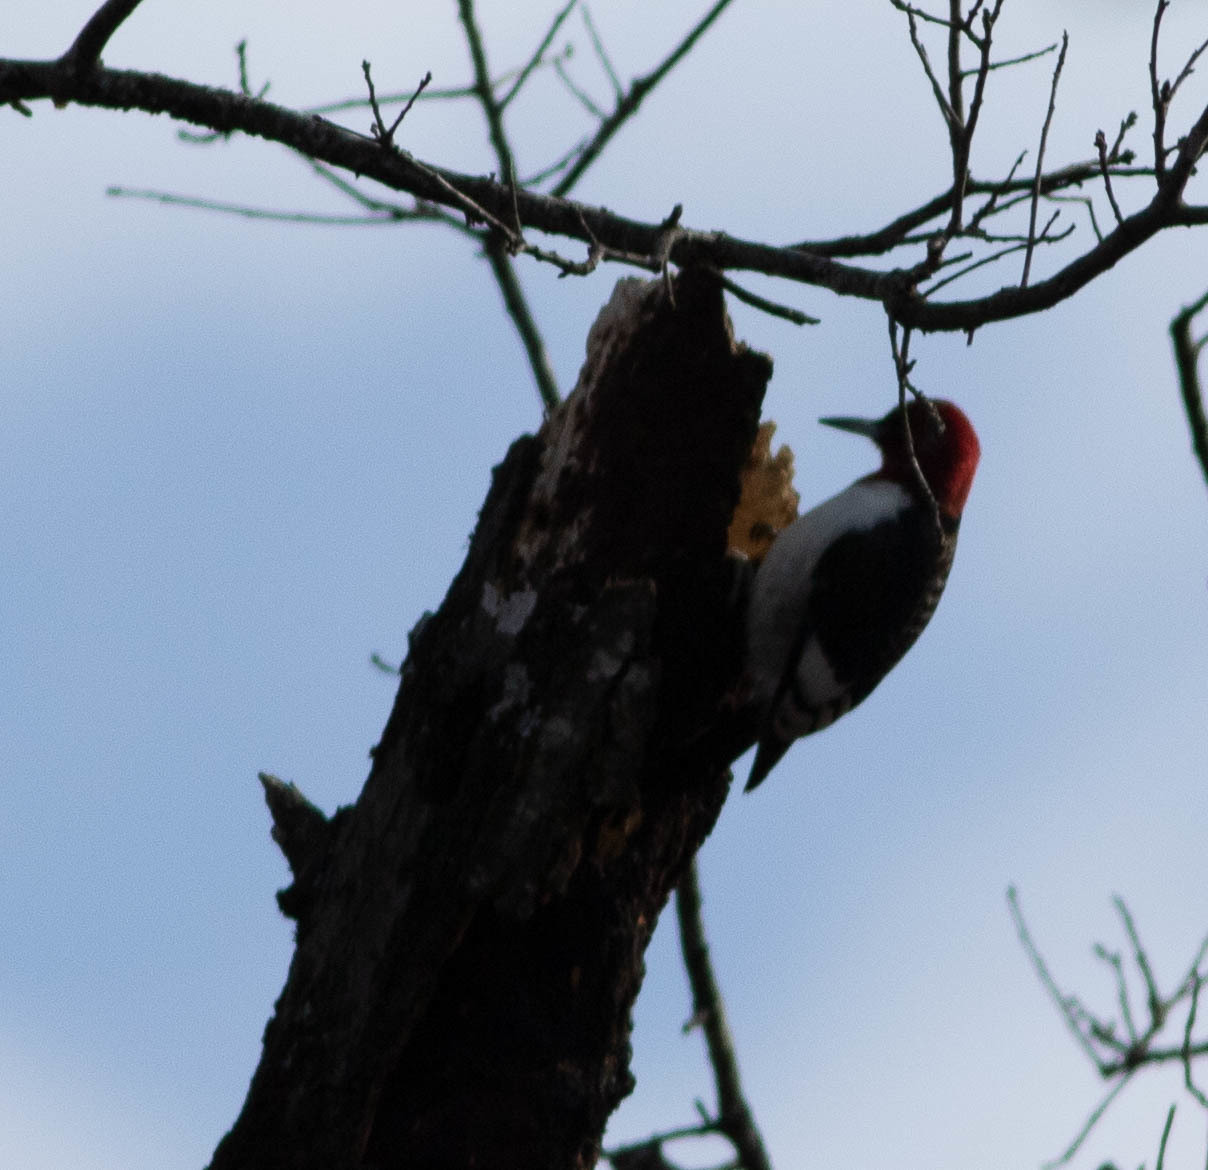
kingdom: Animalia
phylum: Chordata
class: Aves
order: Piciformes
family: Picidae
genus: Melanerpes
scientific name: Melanerpes erythrocephalus
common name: Red-headed woodpecker
